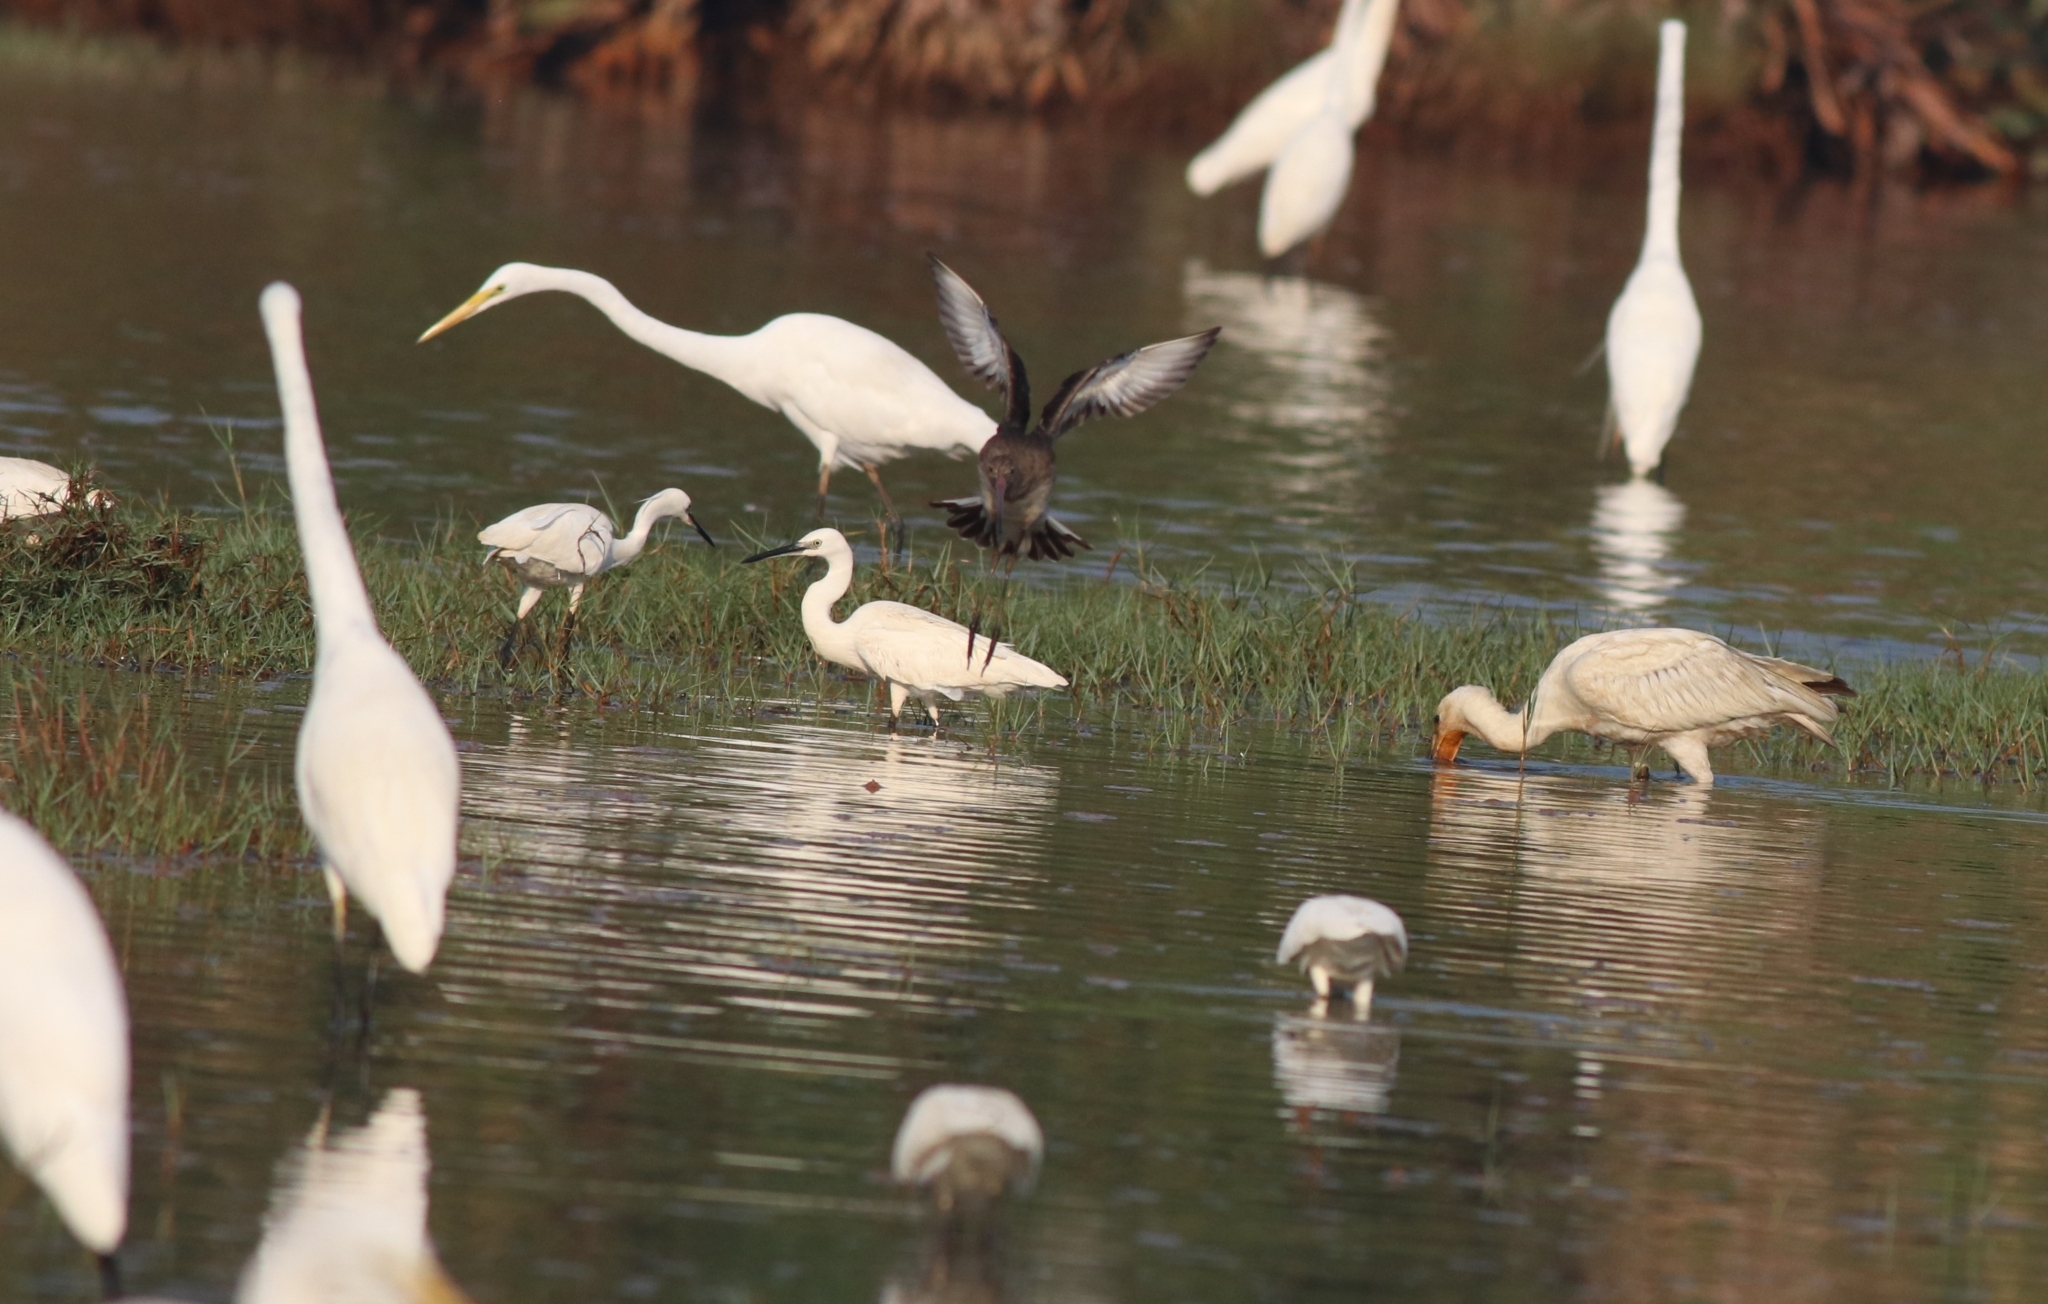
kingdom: Animalia
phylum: Chordata
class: Aves
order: Pelecaniformes
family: Ardeidae
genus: Ardea
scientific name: Ardea alba
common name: Great egret
